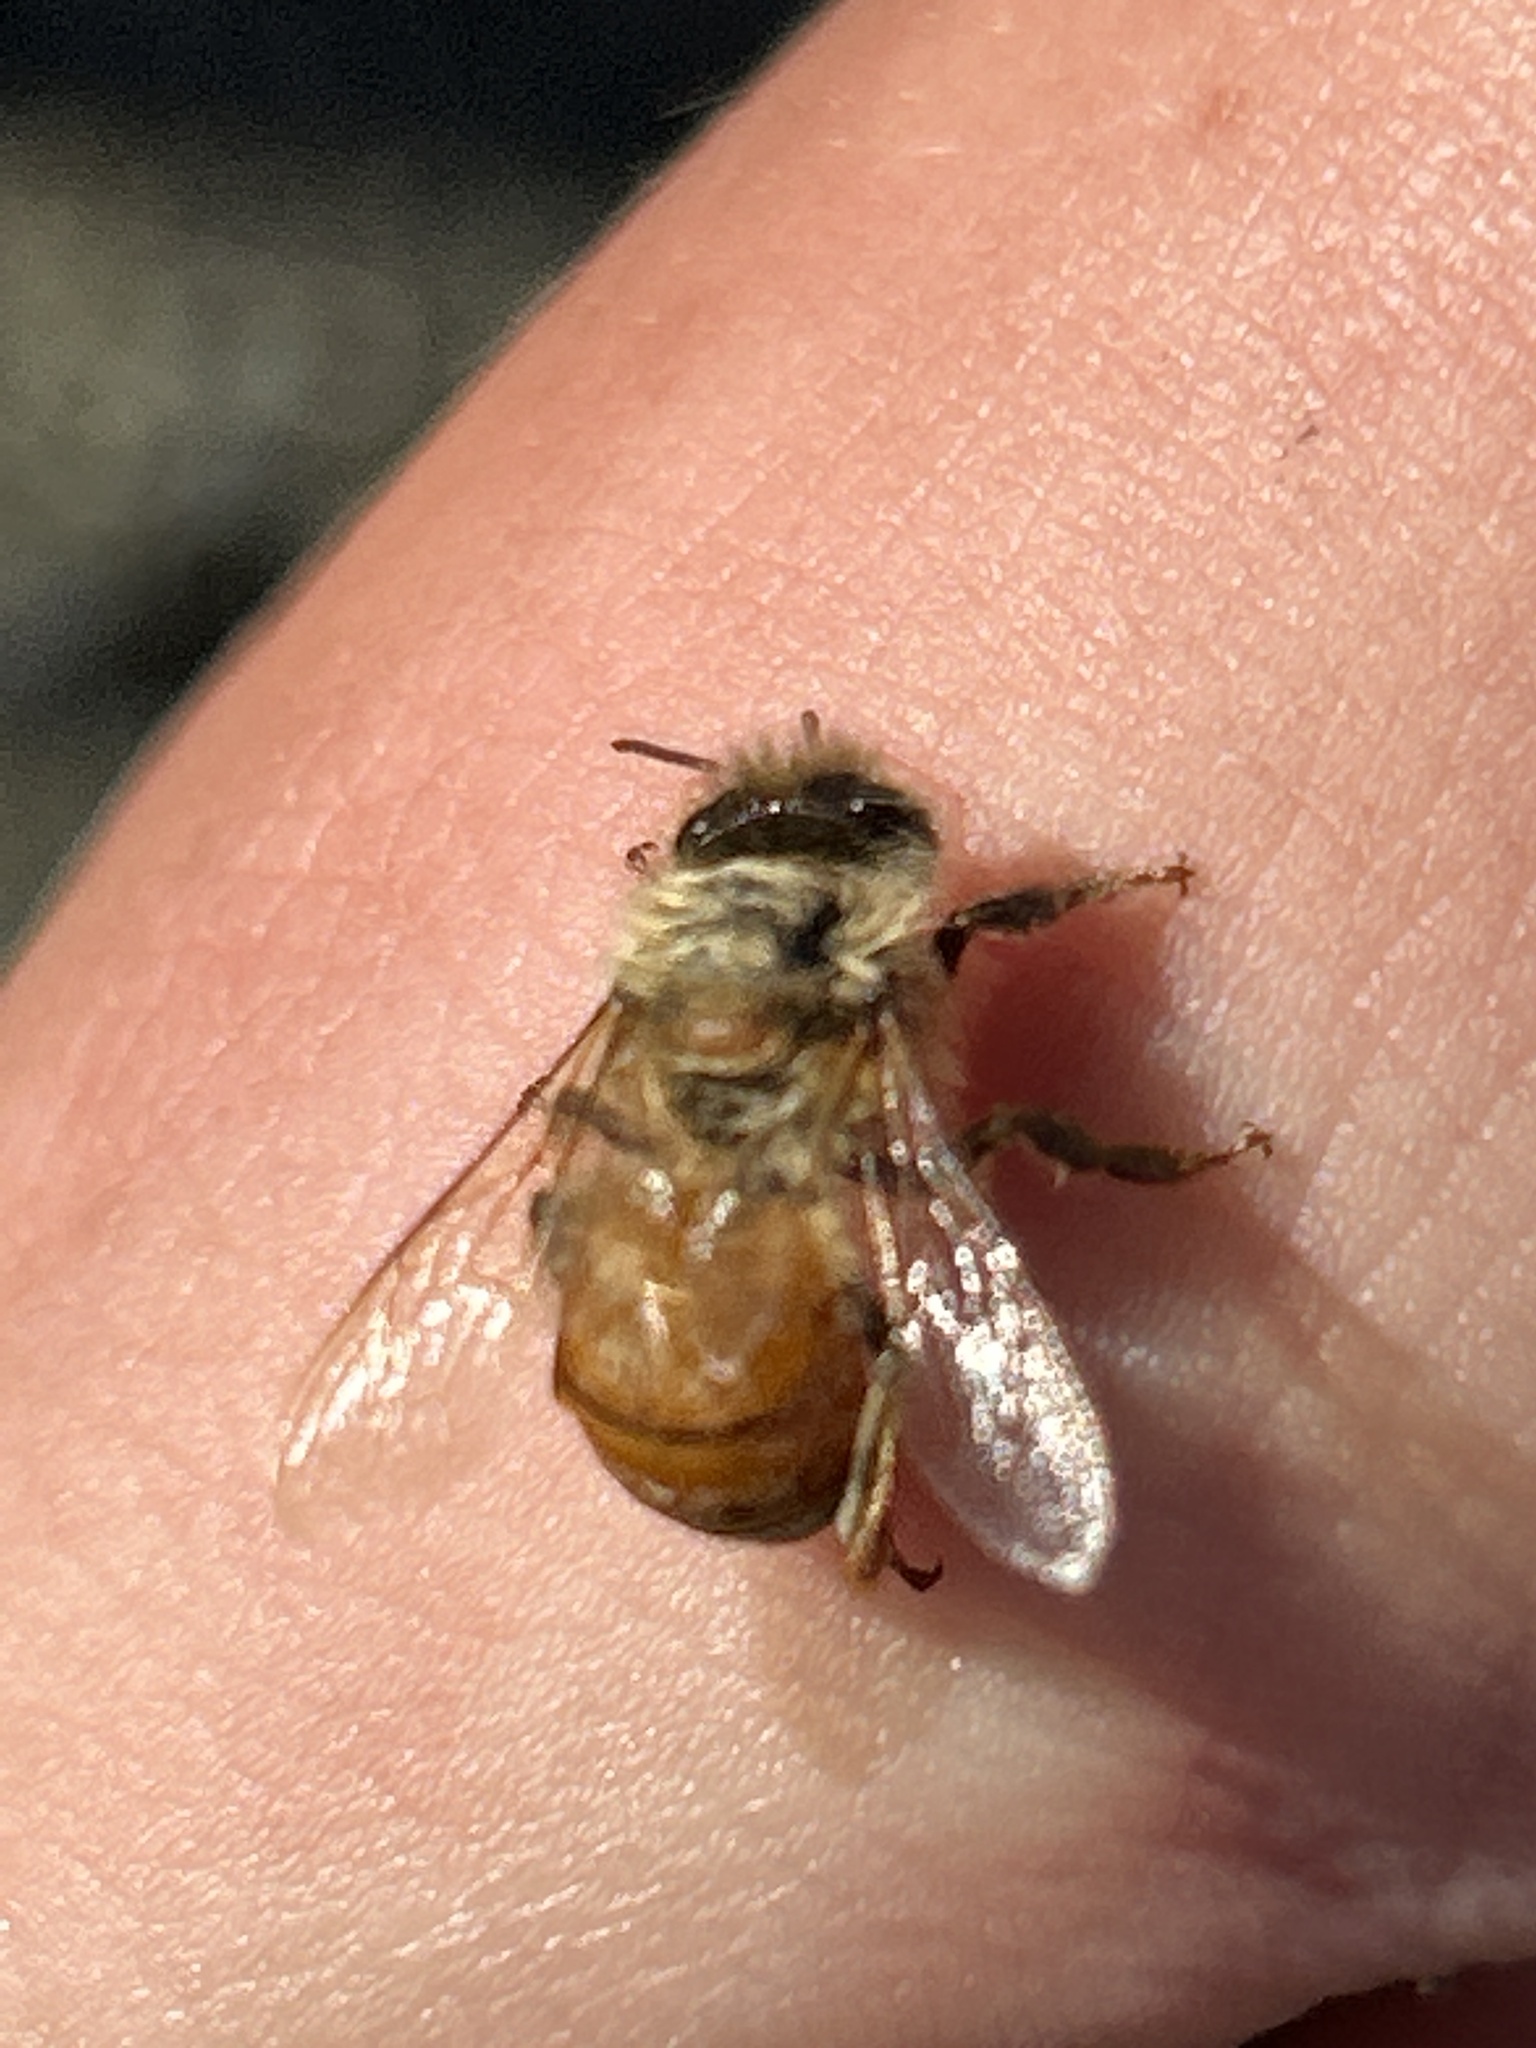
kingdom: Animalia
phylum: Arthropoda
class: Insecta
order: Hymenoptera
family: Apidae
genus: Apis
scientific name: Apis mellifera
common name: Honey bee
